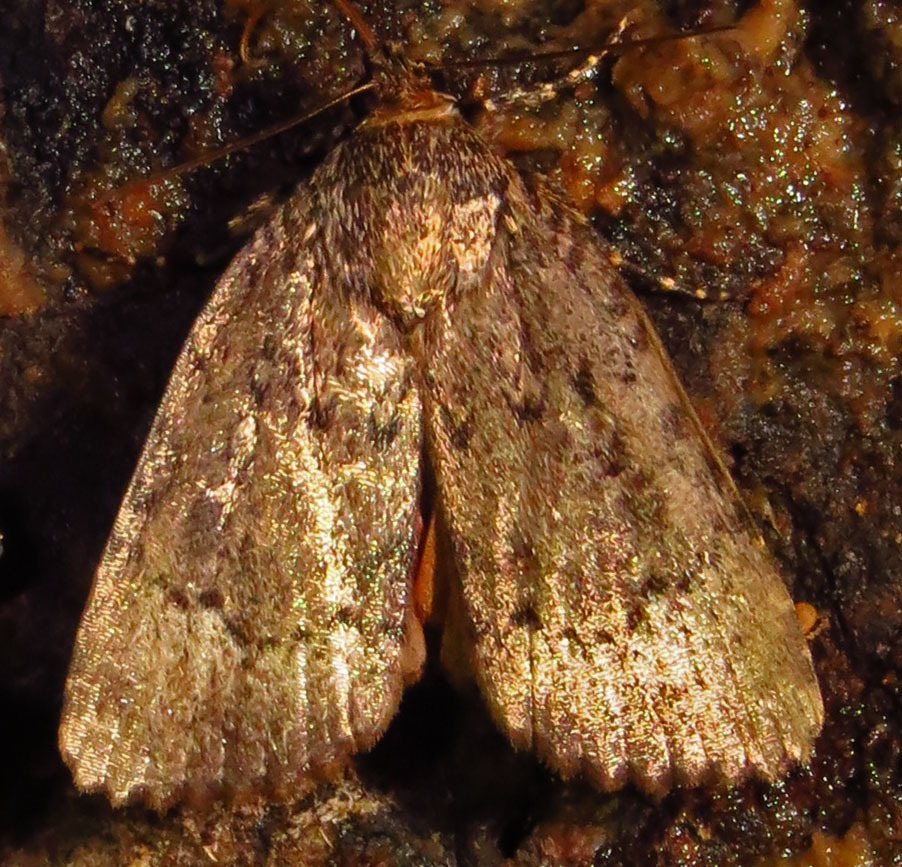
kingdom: Animalia
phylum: Arthropoda
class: Insecta
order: Lepidoptera
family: Noctuidae
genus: Amphipyra
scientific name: Amphipyra pyramidoides
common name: American copper underwing
